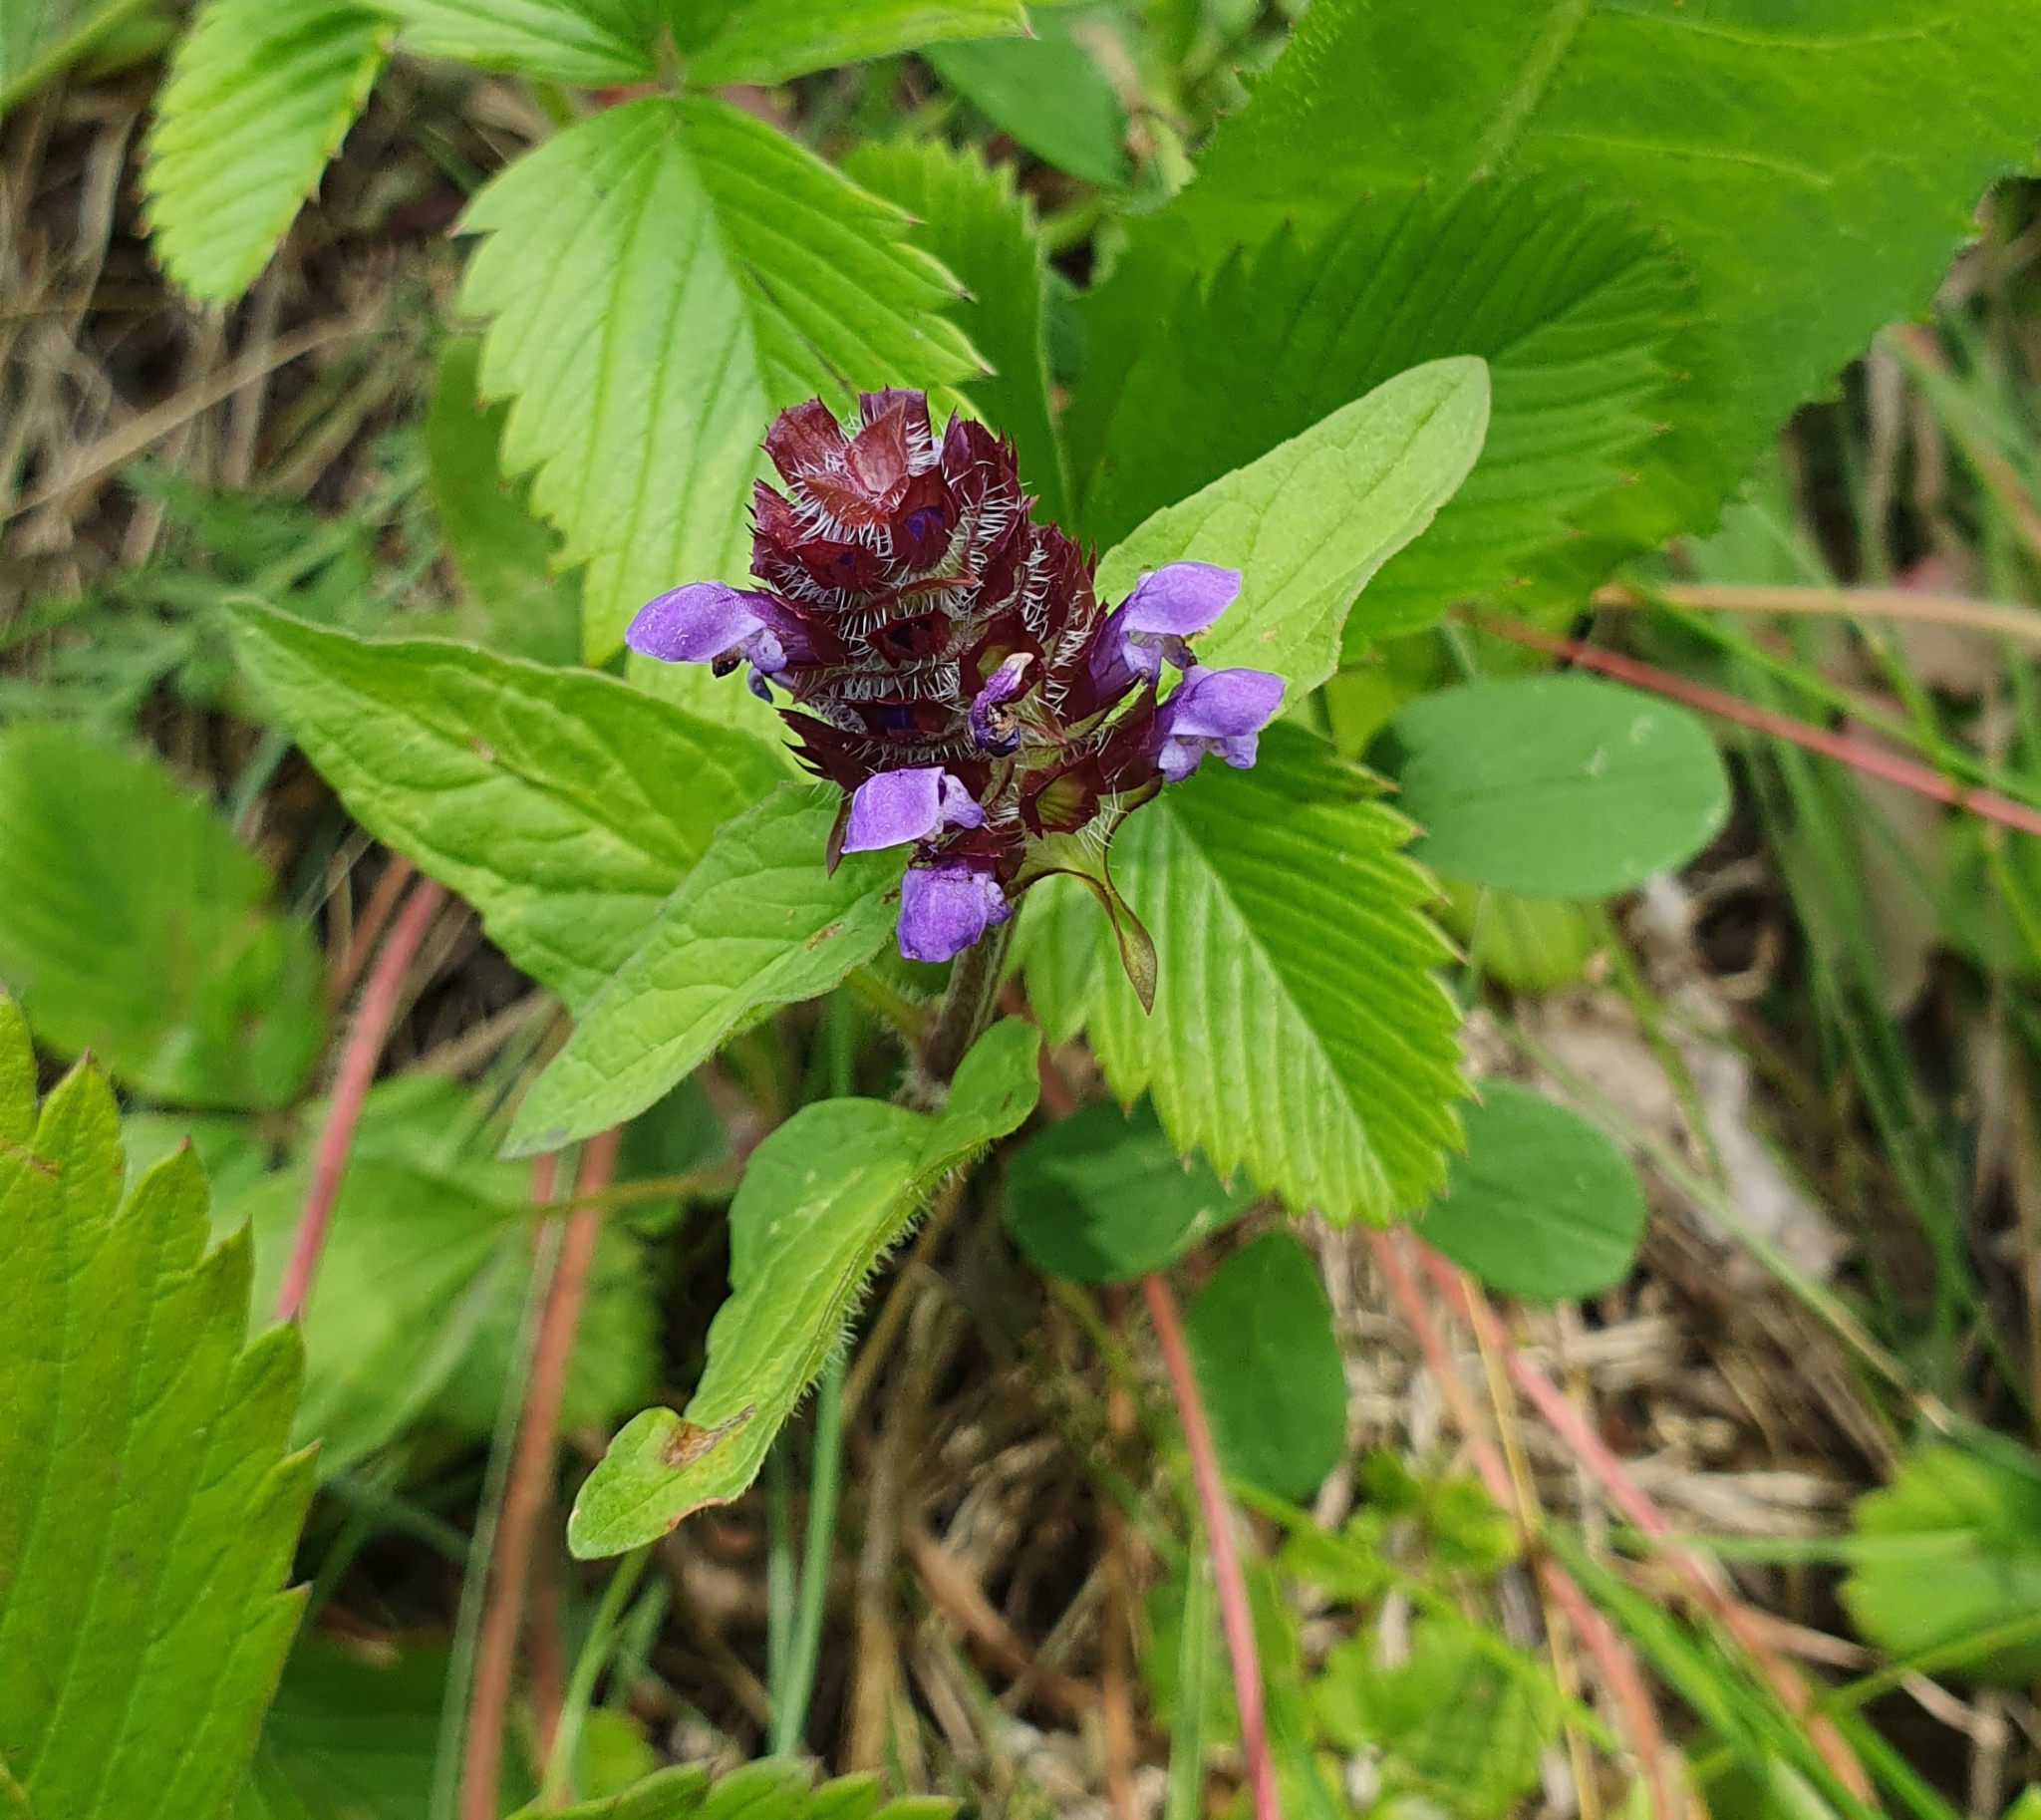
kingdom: Plantae
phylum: Tracheophyta
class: Magnoliopsida
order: Lamiales
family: Lamiaceae
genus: Prunella
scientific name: Prunella vulgaris
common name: Heal-all
